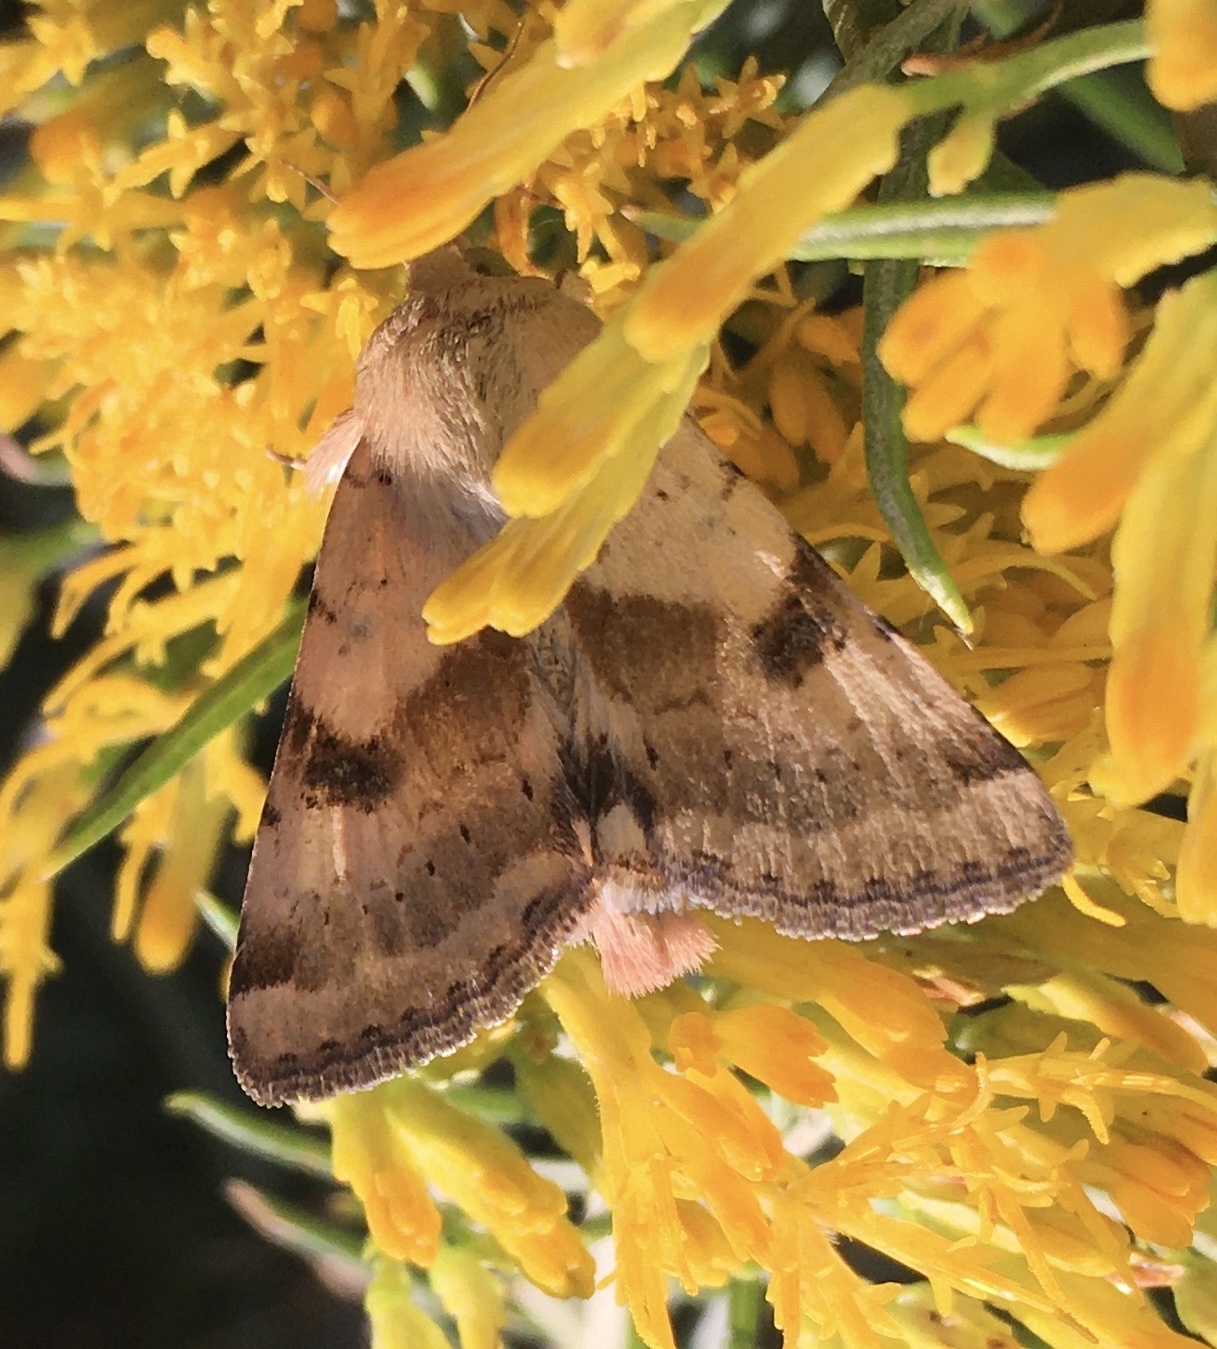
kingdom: Animalia
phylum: Arthropoda
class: Insecta
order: Lepidoptera
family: Noctuidae
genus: Heliothis
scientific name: Heliothis phloxiphaga
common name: Darker spotted straw moth
